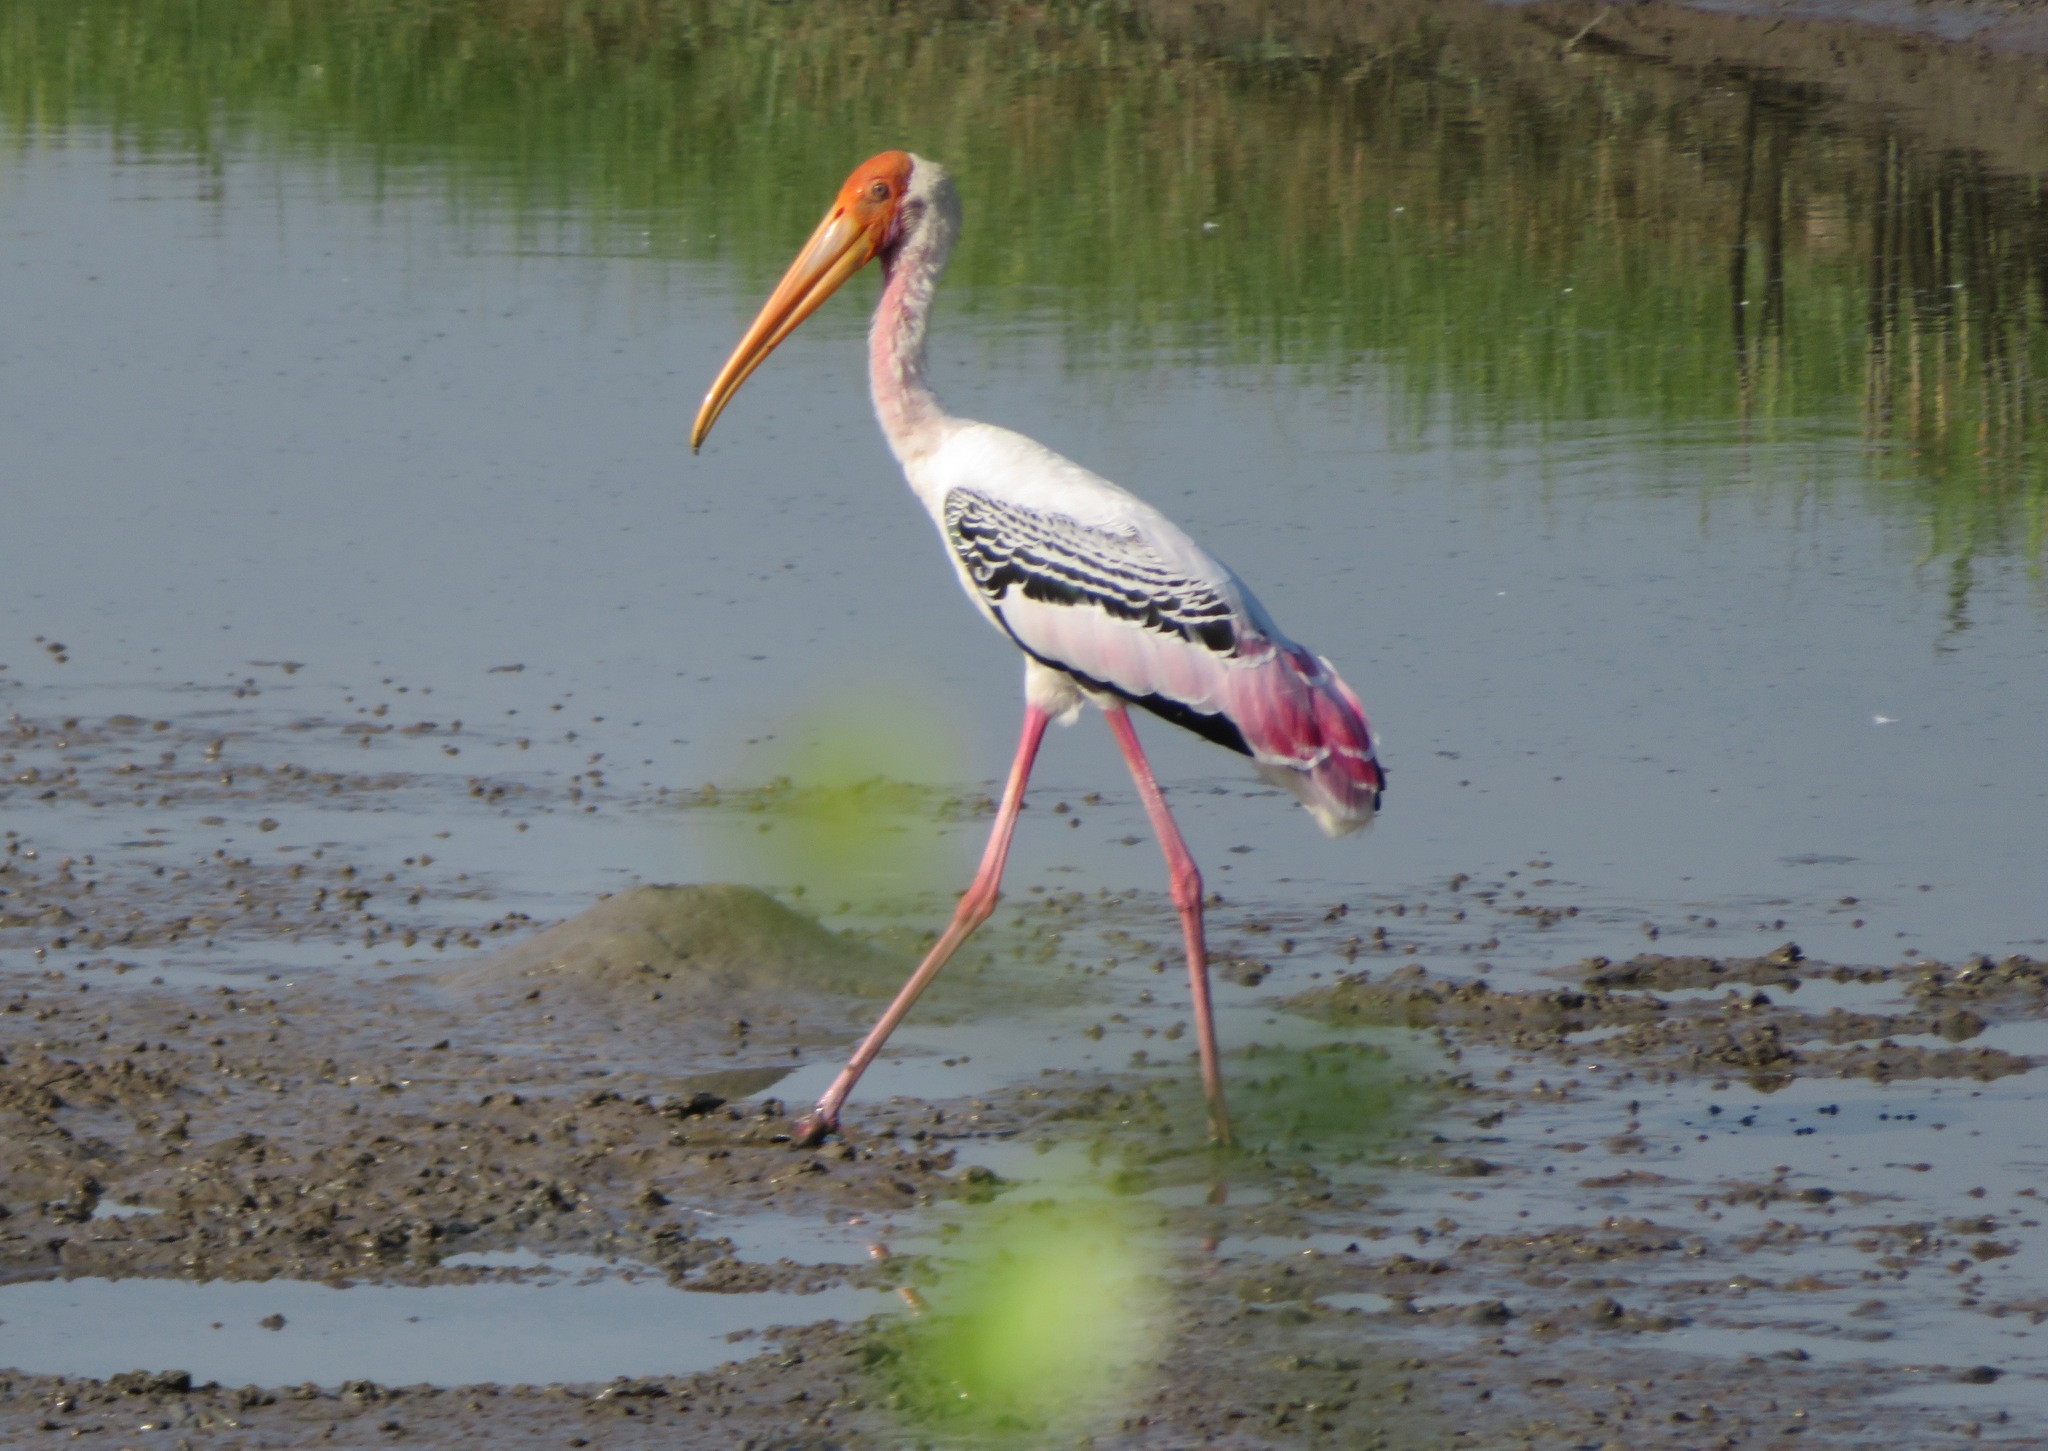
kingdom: Animalia
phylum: Chordata
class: Aves
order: Ciconiiformes
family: Ciconiidae
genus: Mycteria
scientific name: Mycteria leucocephala
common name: Painted stork
